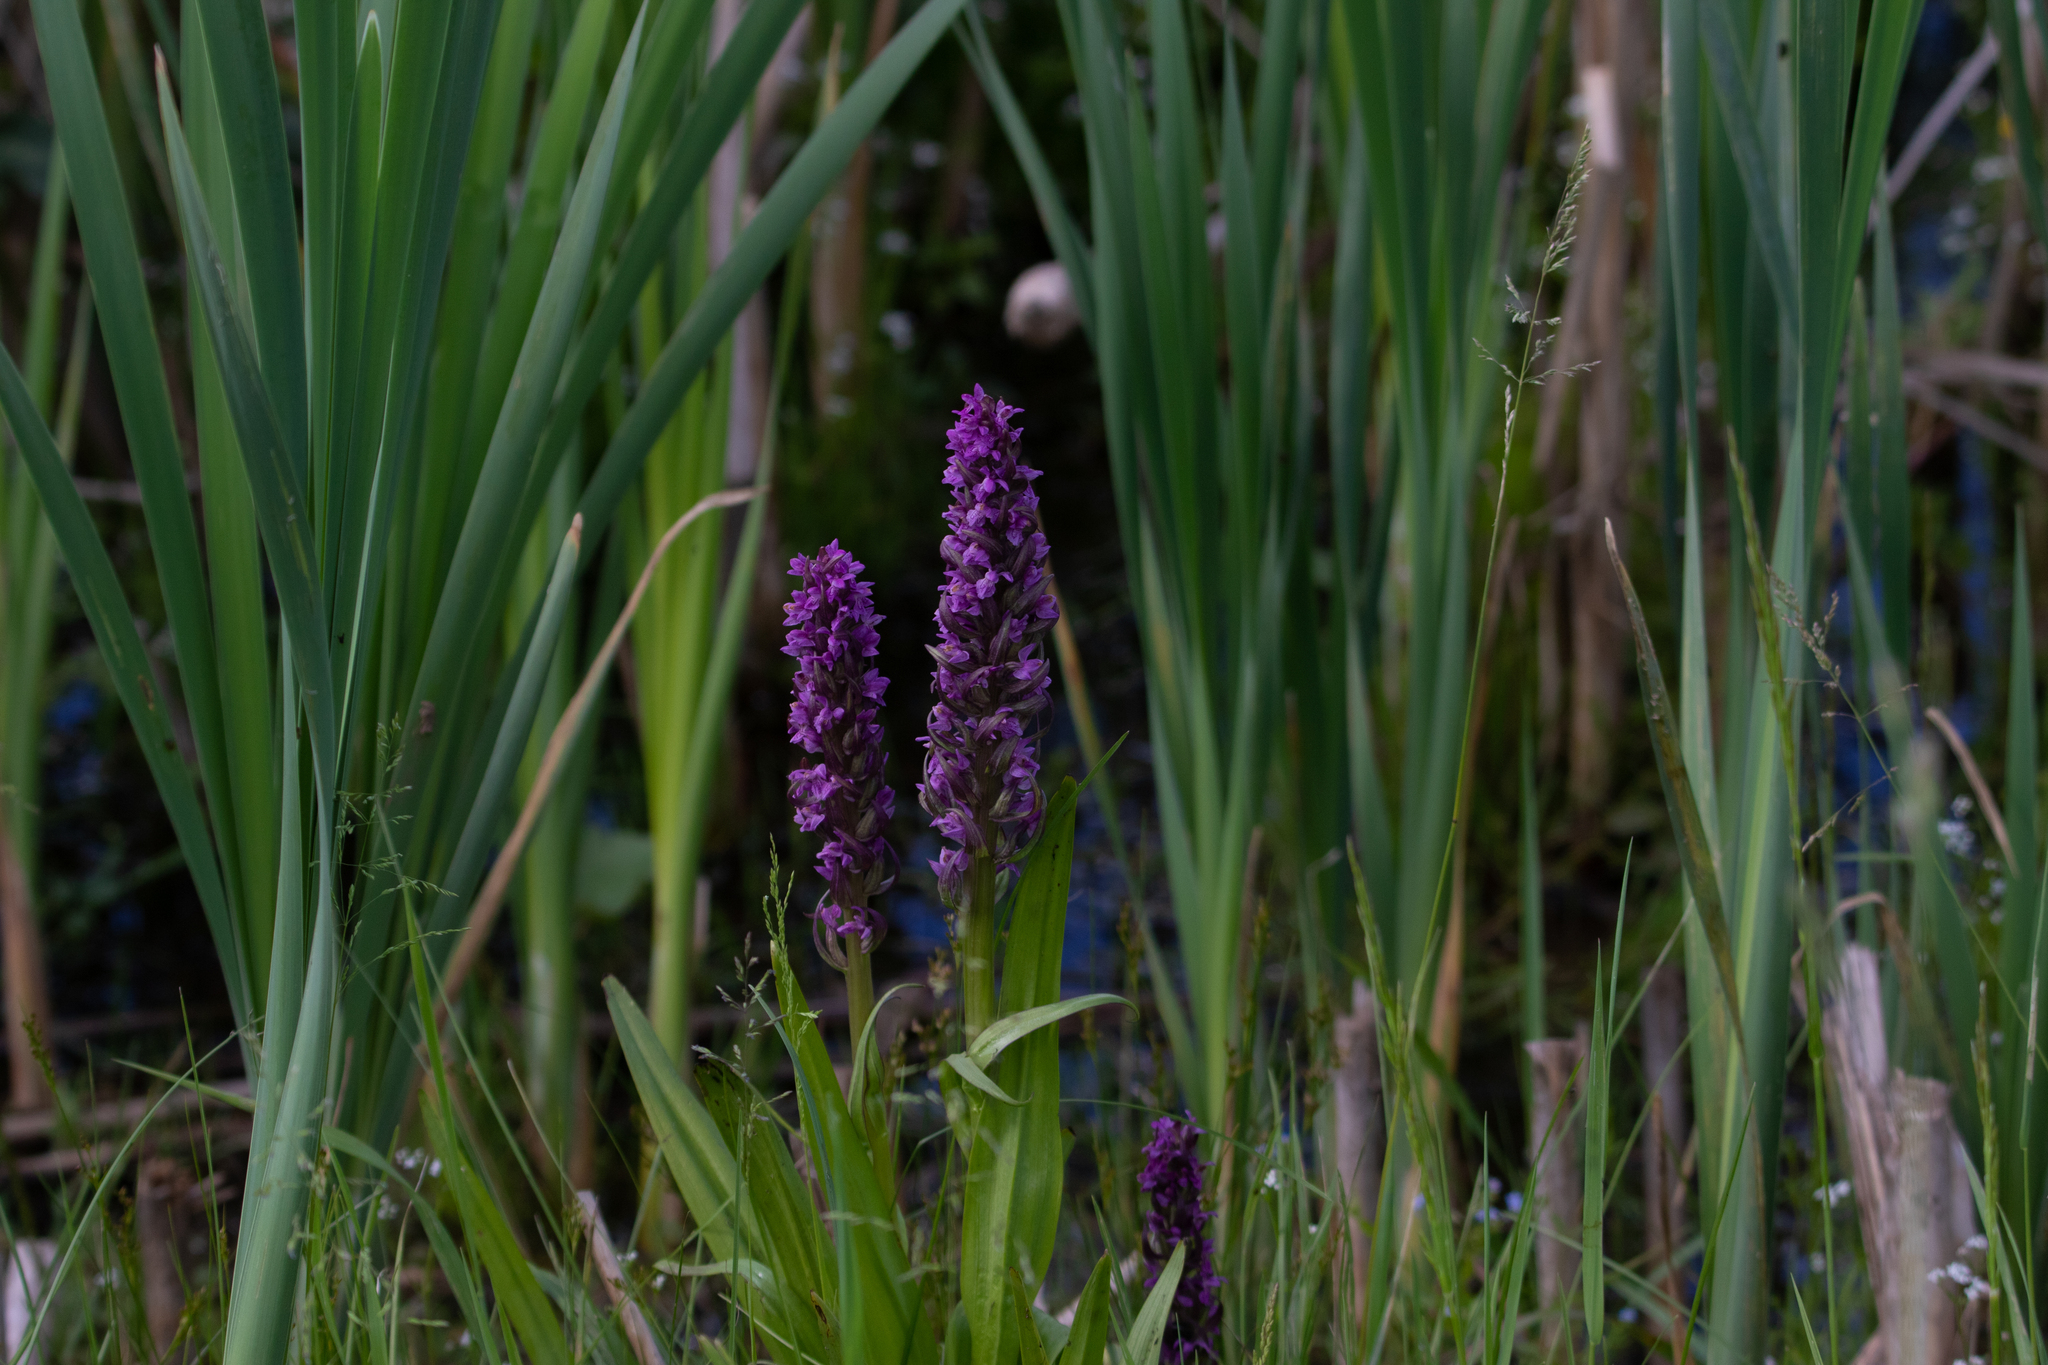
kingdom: Plantae
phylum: Tracheophyta
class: Liliopsida
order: Asparagales
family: Orchidaceae
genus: Dactylorhiza
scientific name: Dactylorhiza incarnata
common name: Early marsh-orchid
